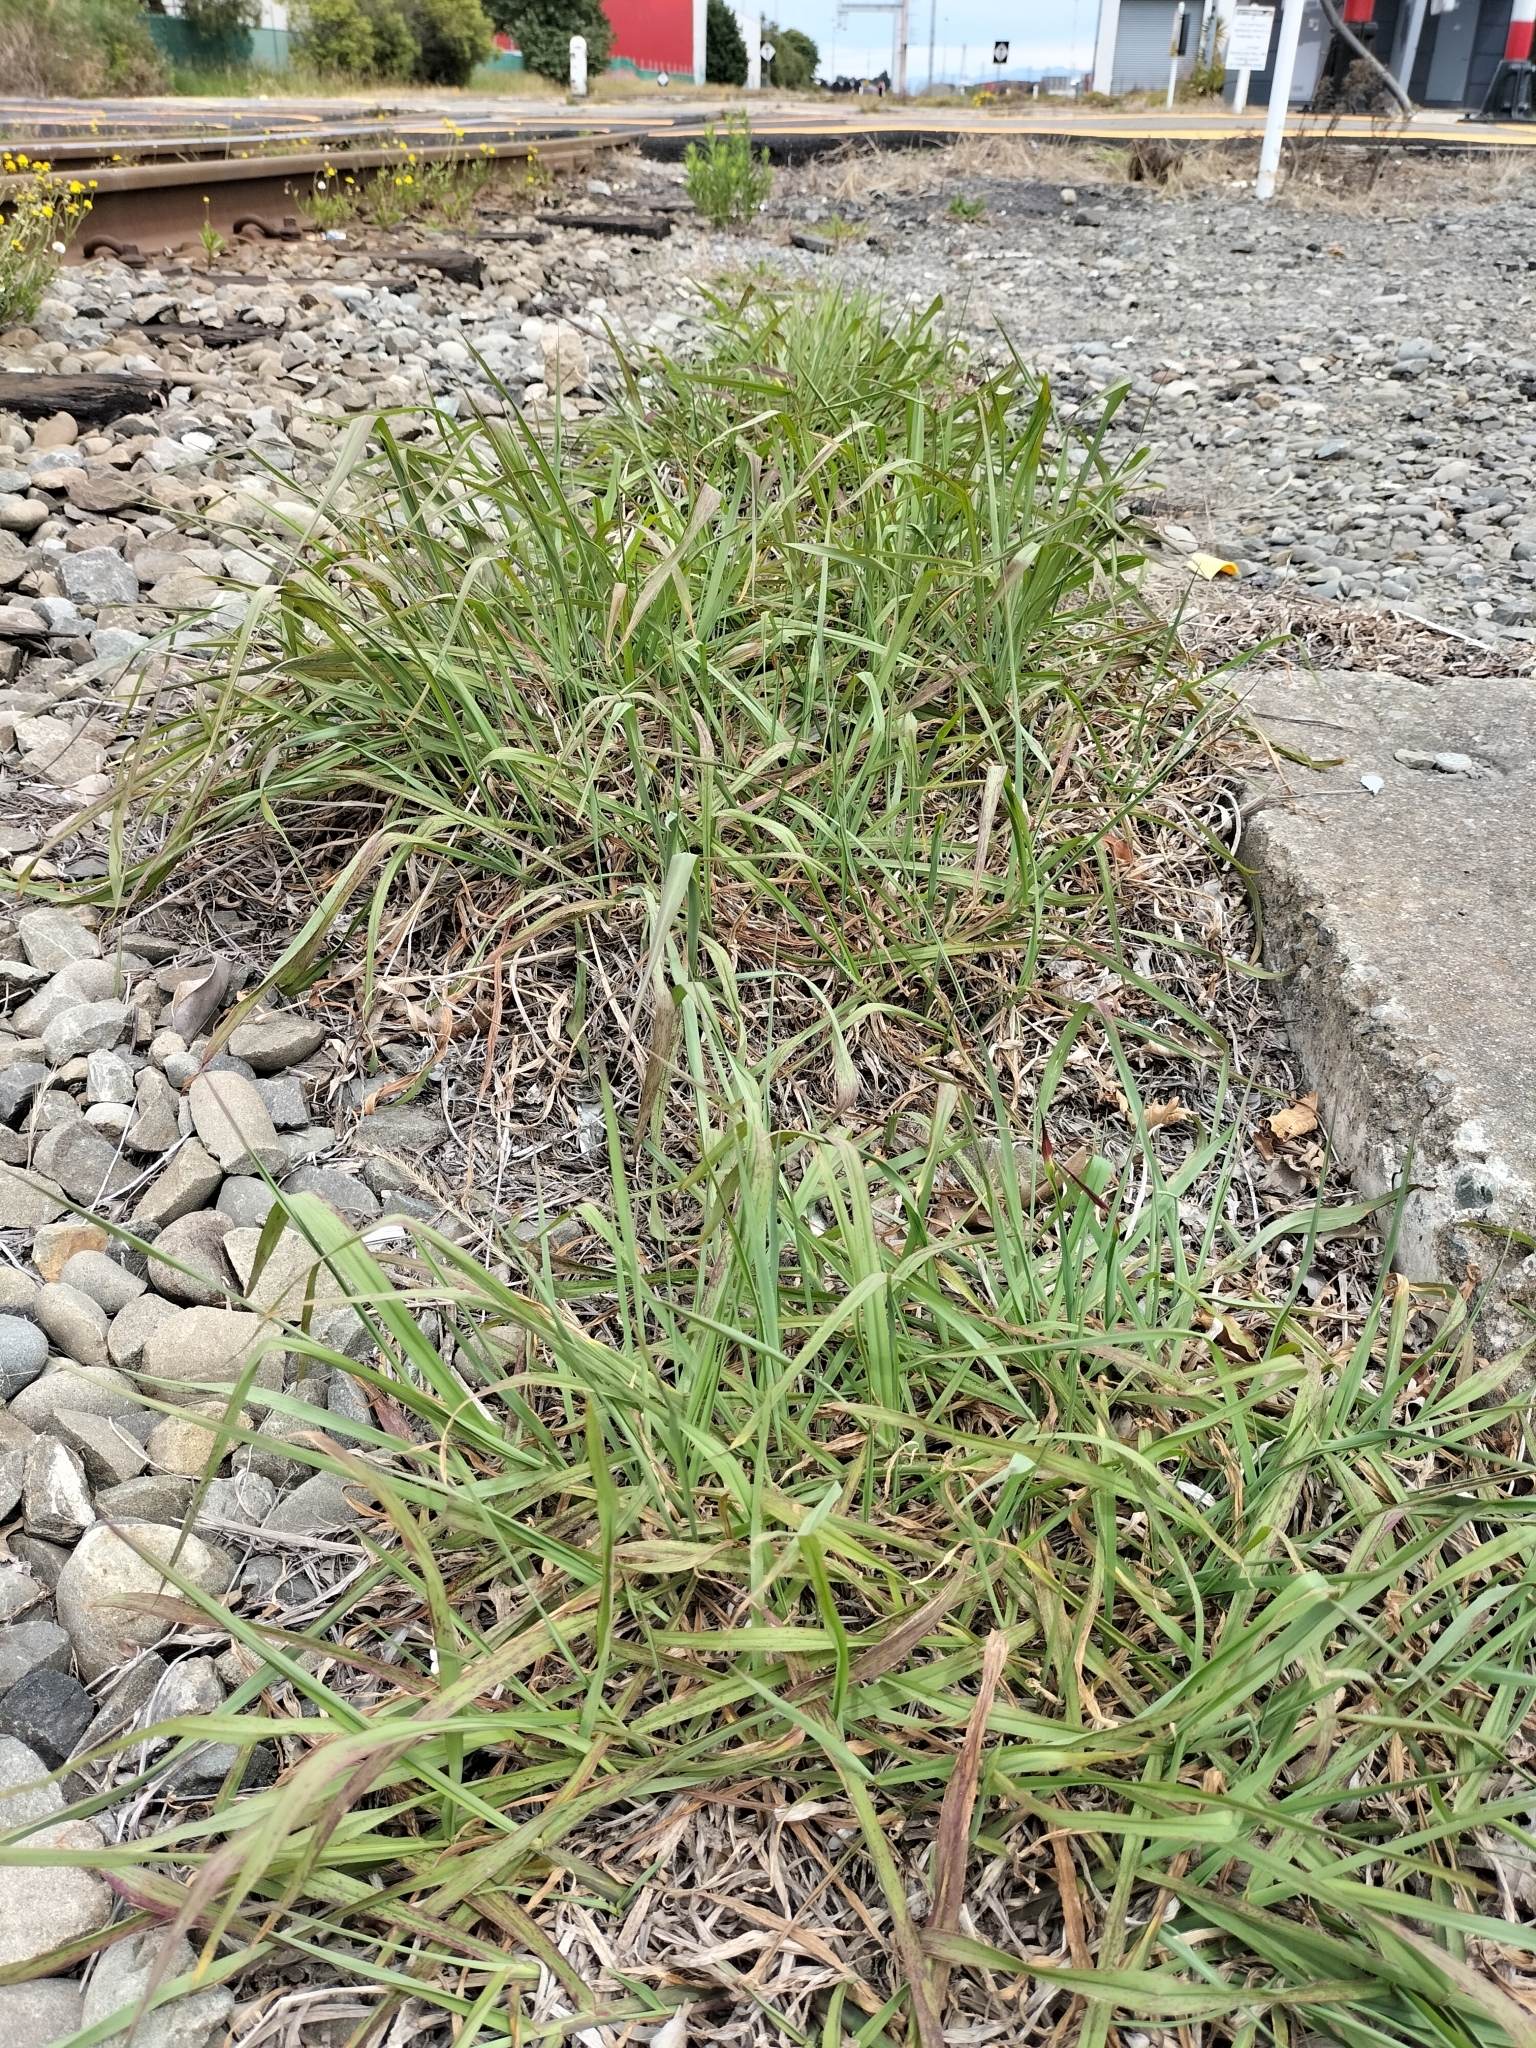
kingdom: Plantae
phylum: Tracheophyta
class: Liliopsida
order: Poales
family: Poaceae
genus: Paspalum
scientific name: Paspalum dilatatum
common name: Dallisgrass
